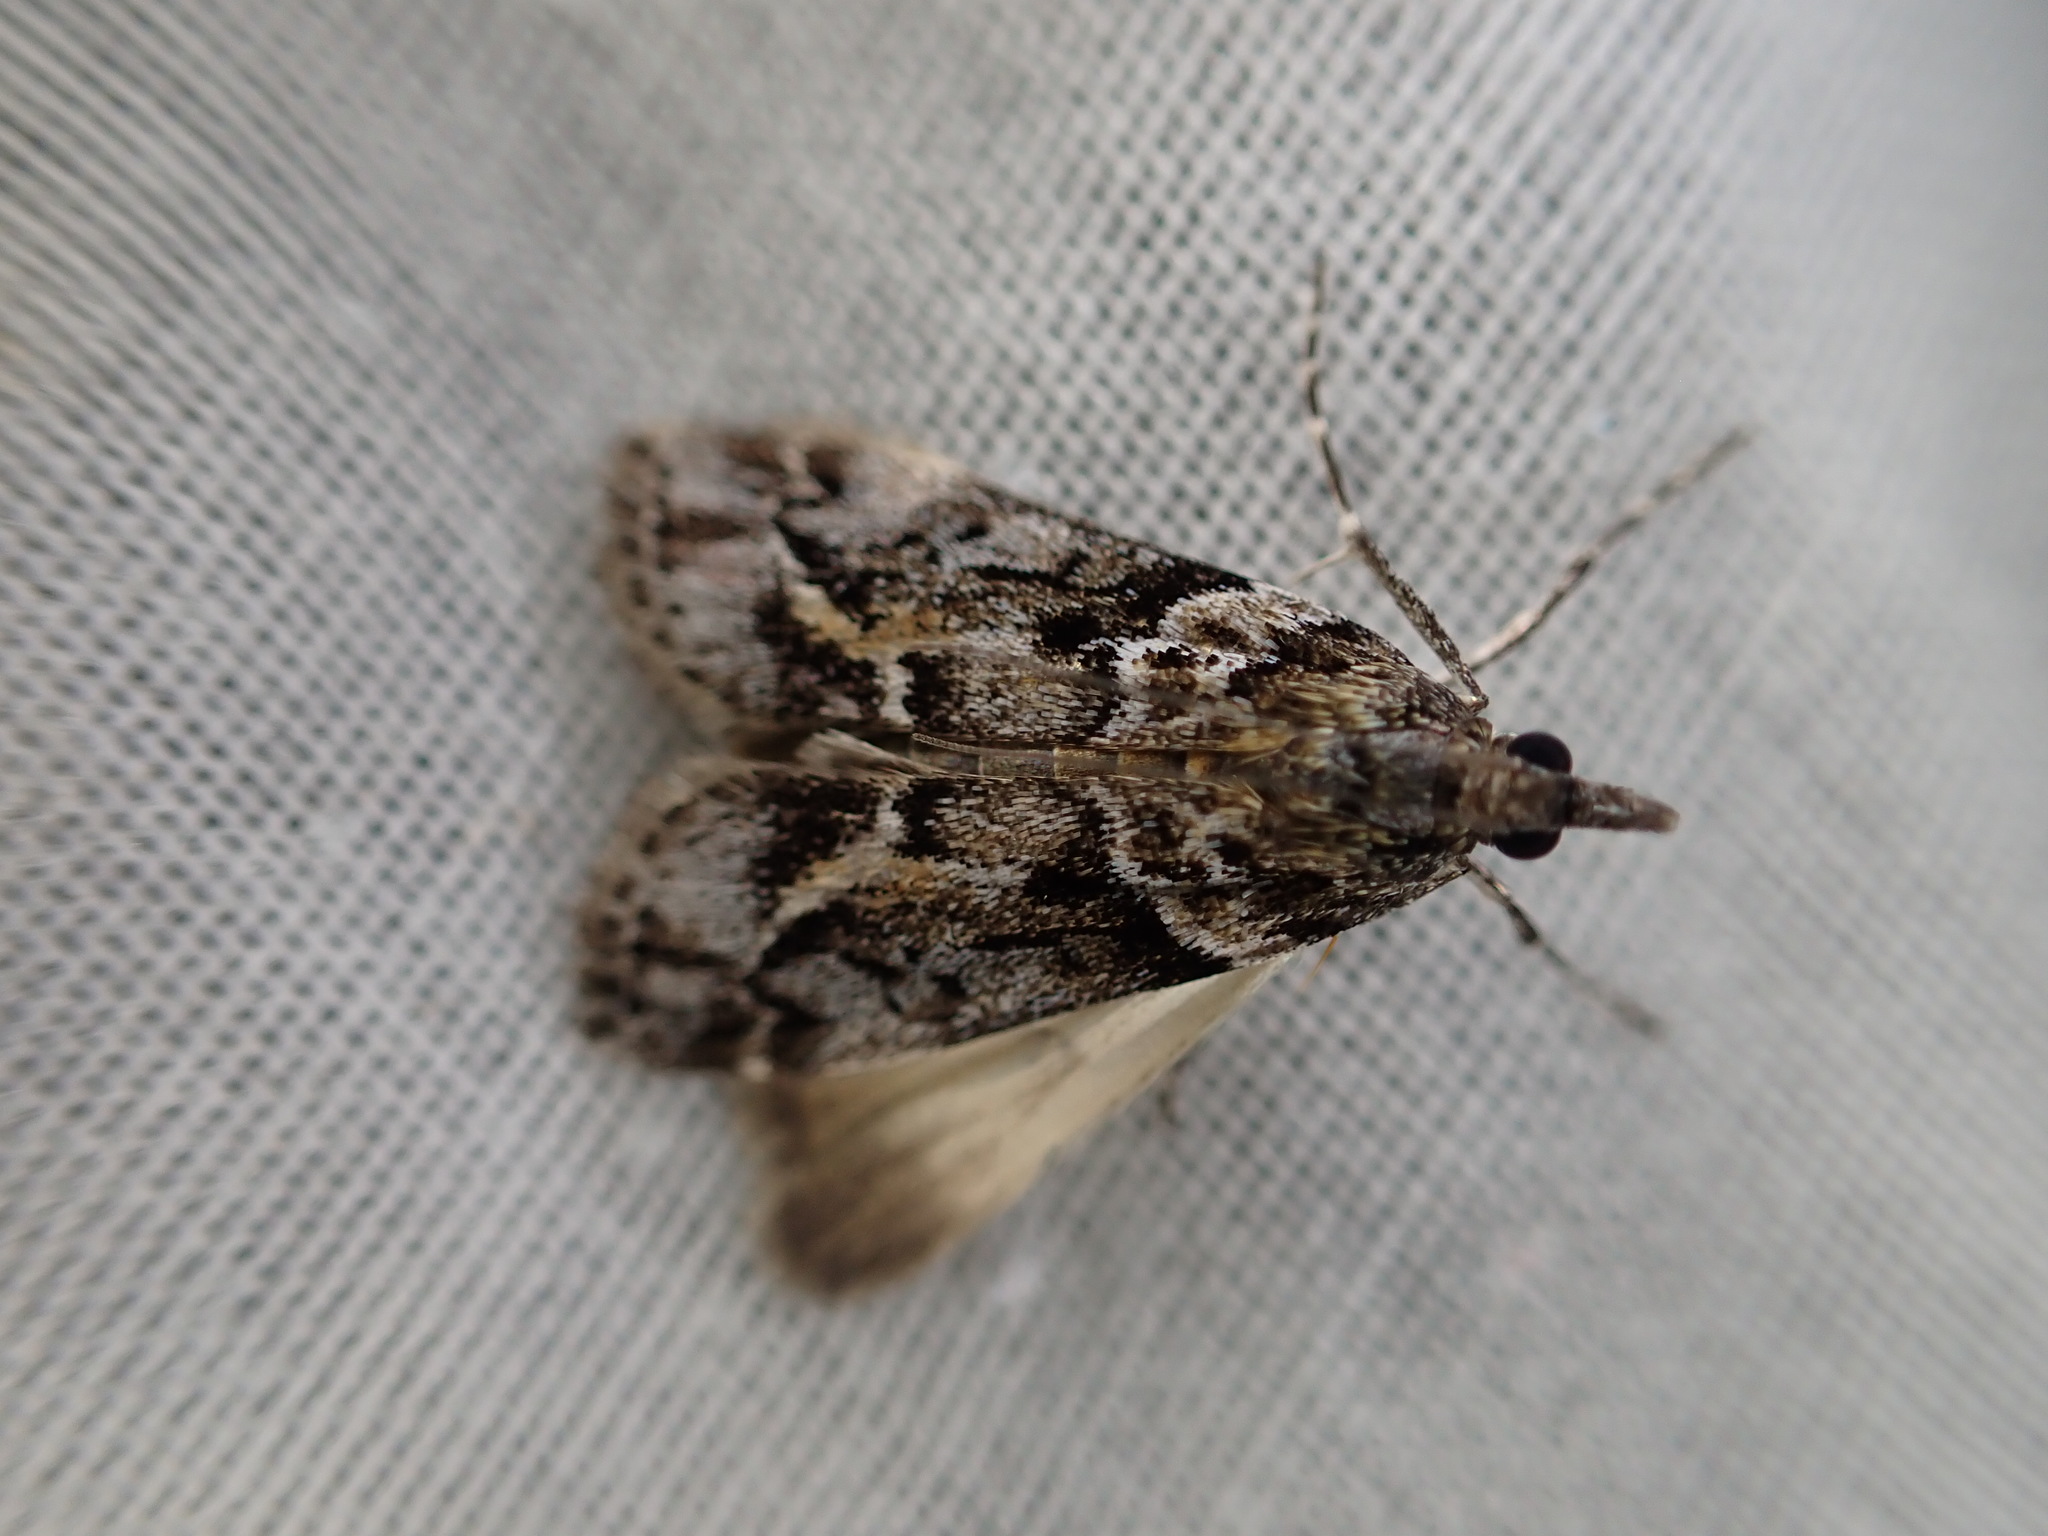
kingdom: Animalia
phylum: Arthropoda
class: Insecta
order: Lepidoptera
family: Crambidae
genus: Eudonia
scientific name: Eudonia submarginalis
